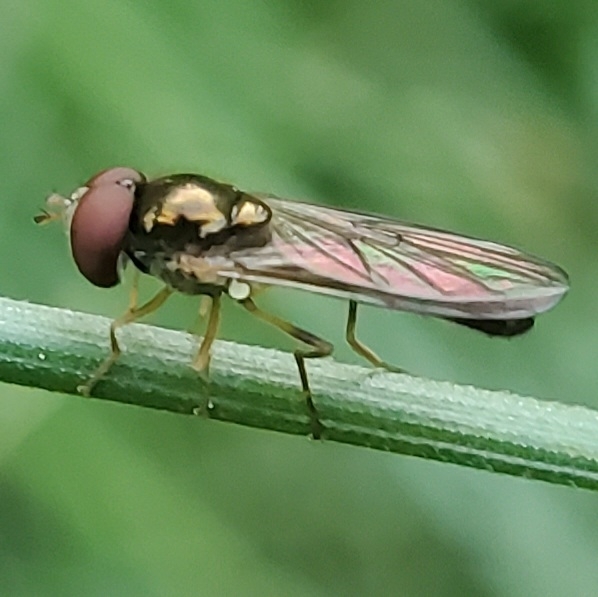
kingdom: Animalia
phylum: Arthropoda
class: Insecta
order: Diptera
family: Syrphidae
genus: Melanostoma
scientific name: Melanostoma mellina
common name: Hover fly
